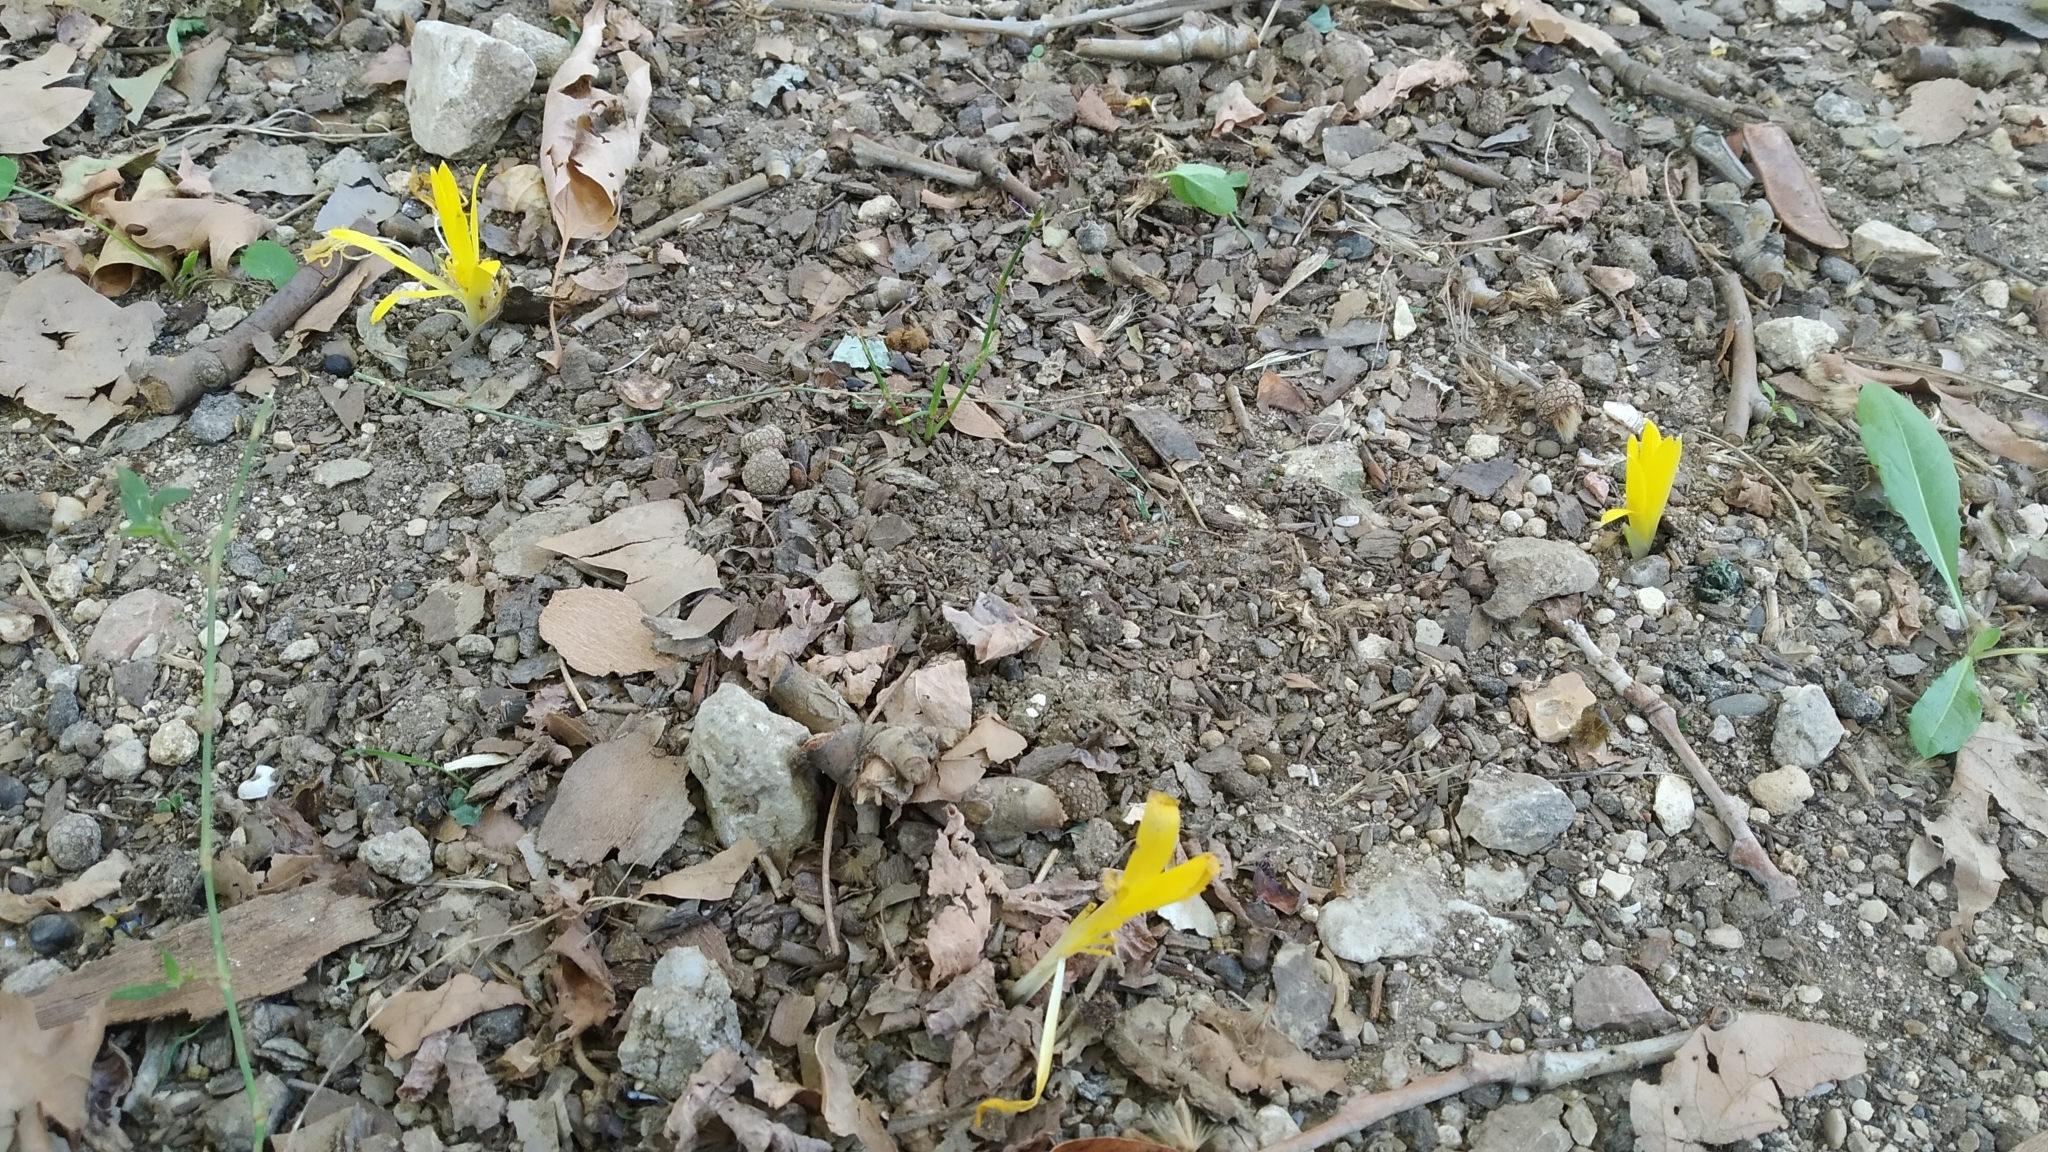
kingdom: Plantae
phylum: Tracheophyta
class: Liliopsida
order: Asparagales
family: Amaryllidaceae
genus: Sternbergia
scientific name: Sternbergia colchiciflora
